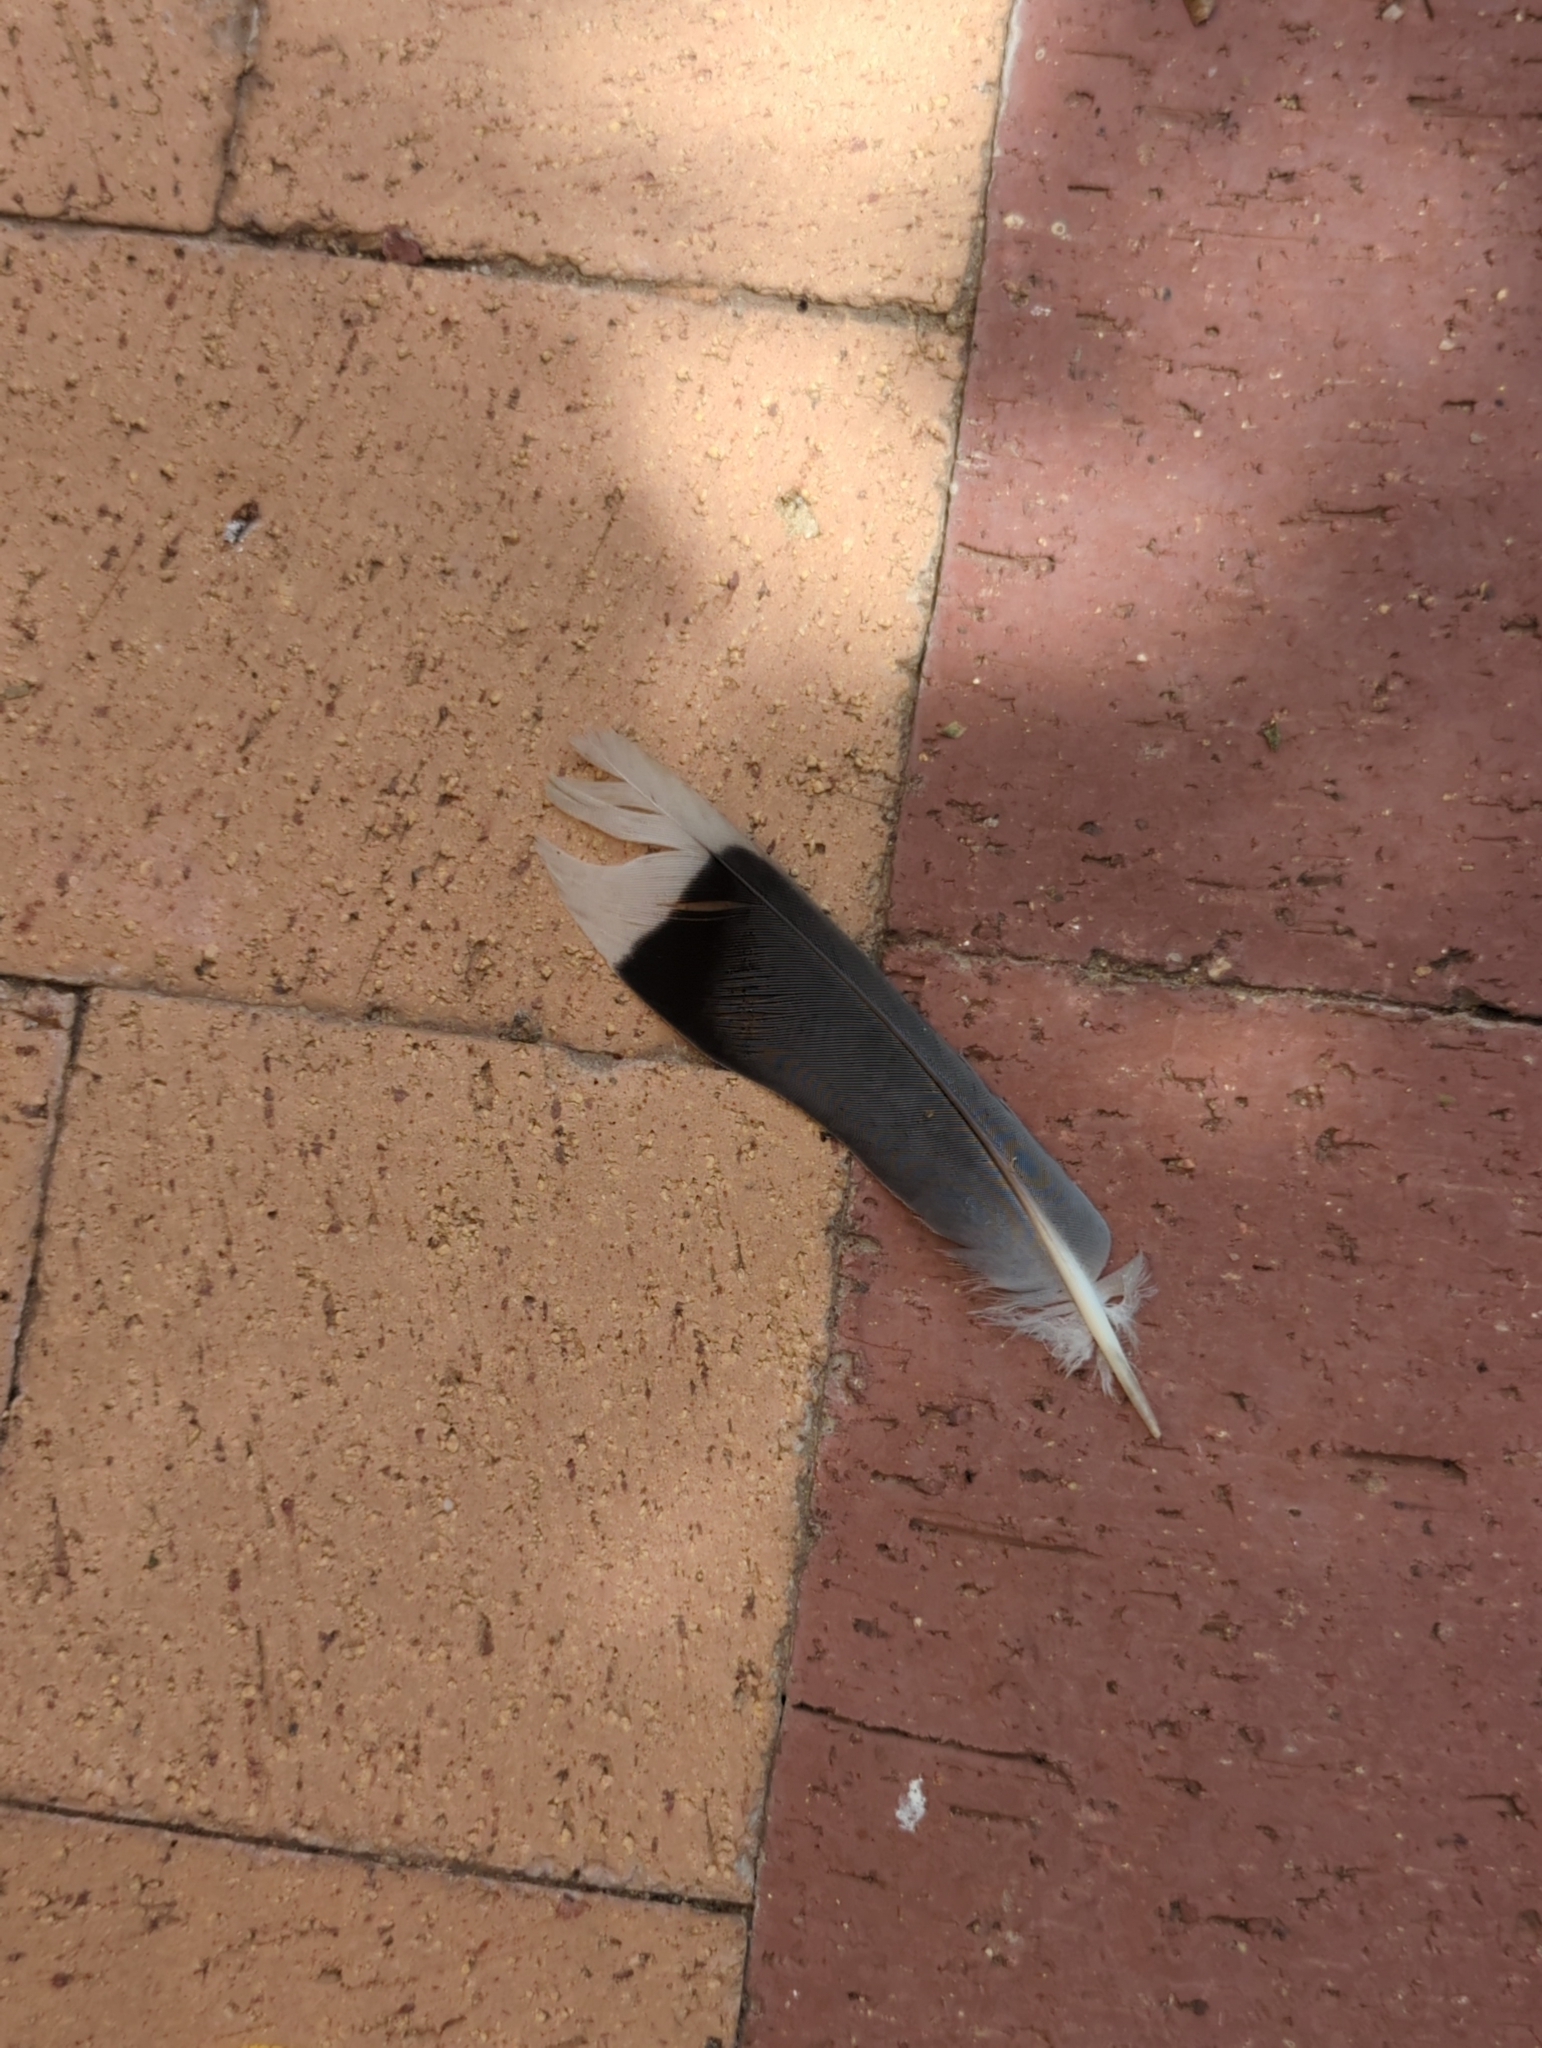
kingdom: Animalia
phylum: Chordata
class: Aves
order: Columbiformes
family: Columbidae
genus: Zenaida
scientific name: Zenaida asiatica
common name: White-winged dove
